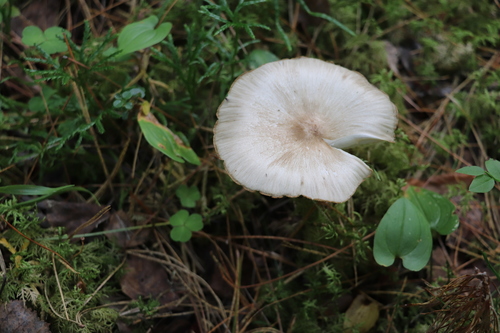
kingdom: Fungi
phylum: Basidiomycota
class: Agaricomycetes
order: Agaricales
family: Tricholomataceae
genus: Megacollybia
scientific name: Megacollybia platyphylla
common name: Whitelaced shank
